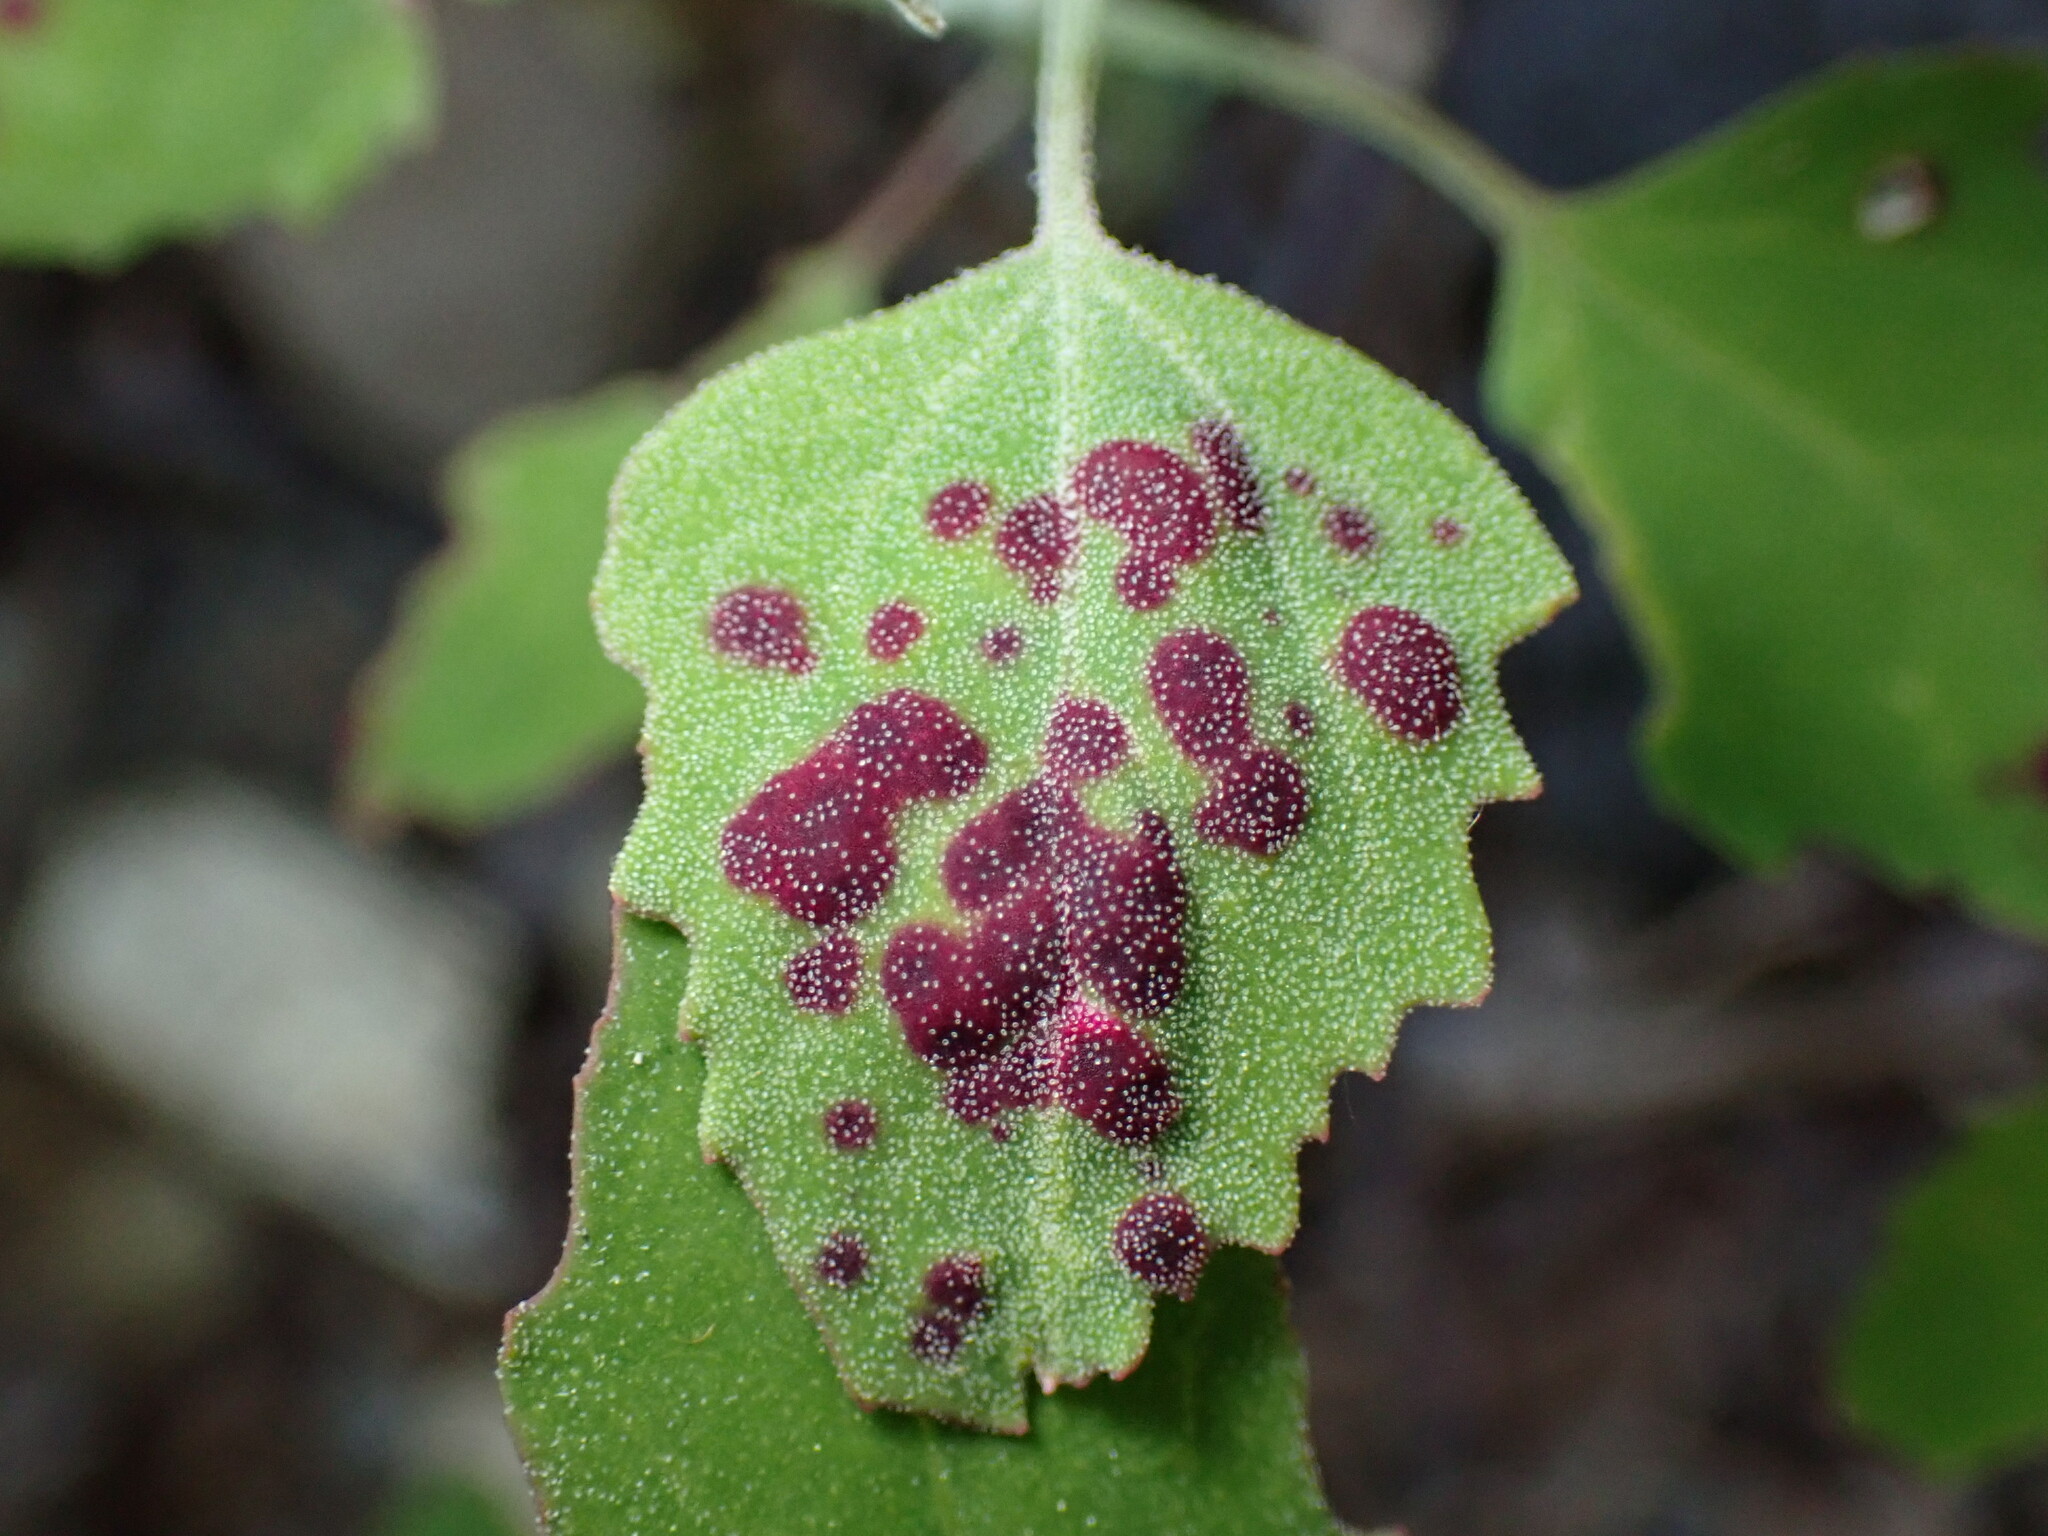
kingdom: Animalia
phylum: Arthropoda
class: Insecta
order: Hemiptera
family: Cicadellidae
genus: Norvellina
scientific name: Norvellina chenopodii
